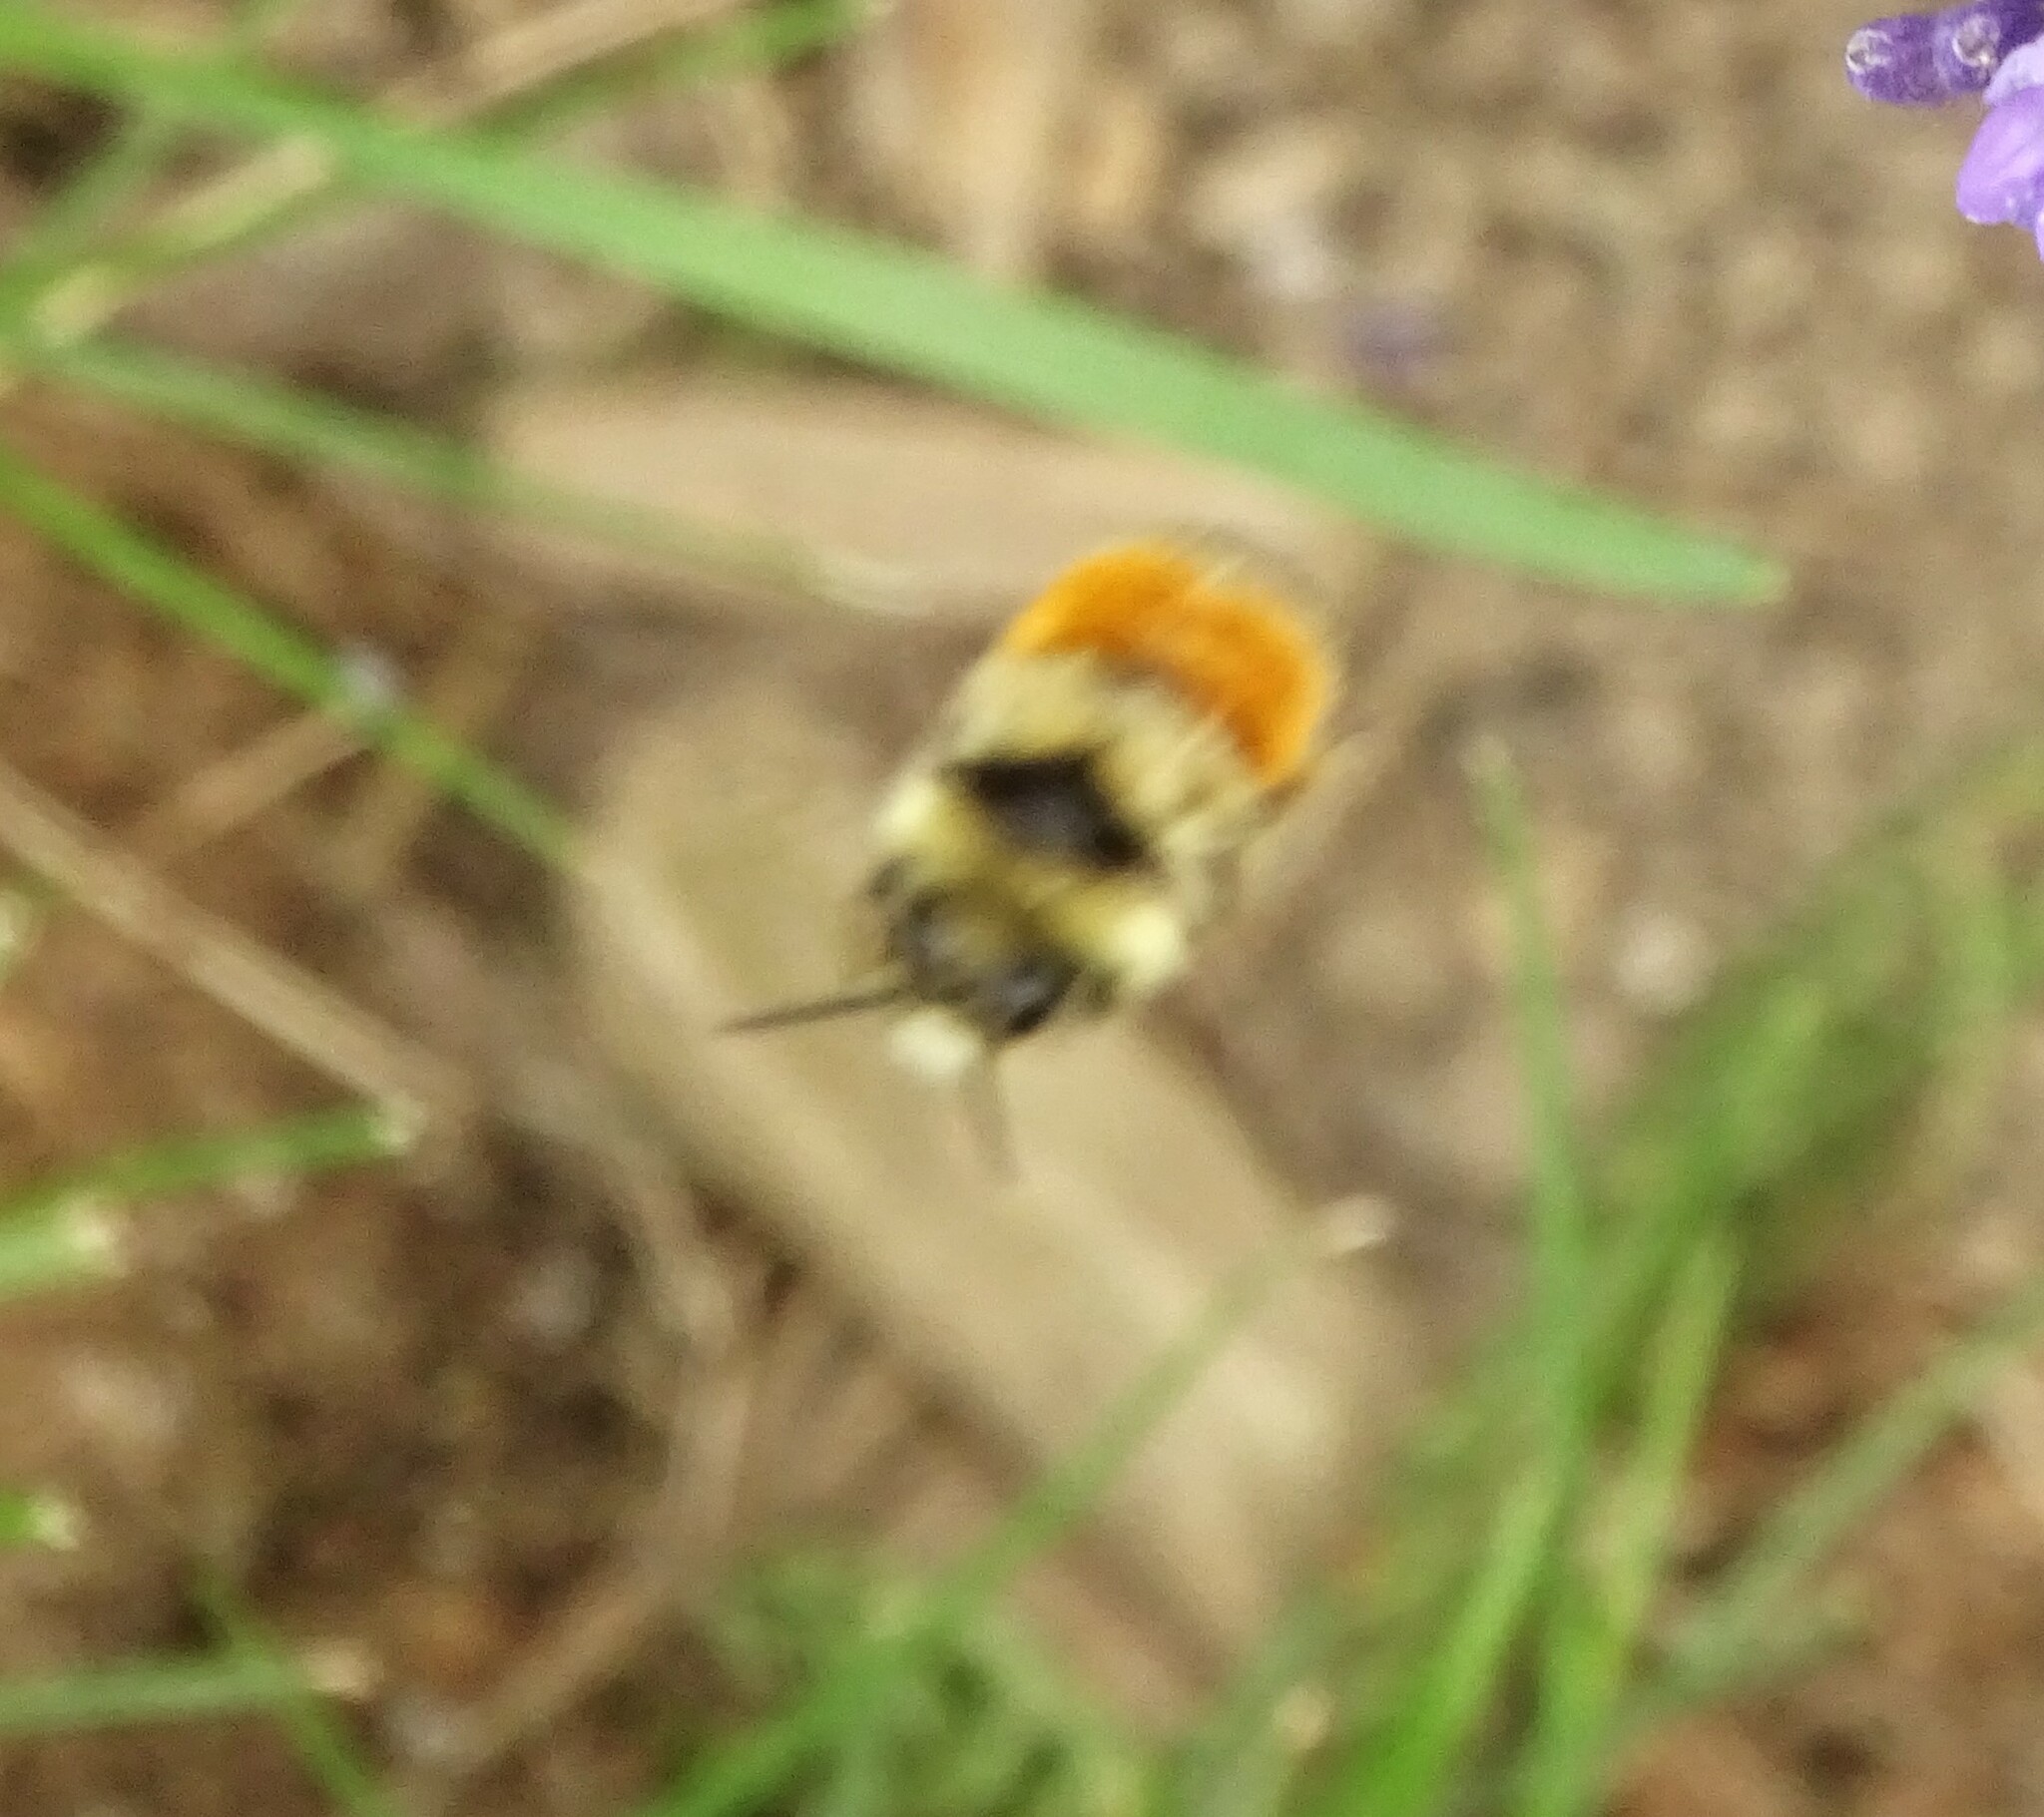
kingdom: Animalia
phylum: Arthropoda
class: Insecta
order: Hymenoptera
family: Apidae
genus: Bombus
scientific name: Bombus ternarius
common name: Tri-colored bumble bee
